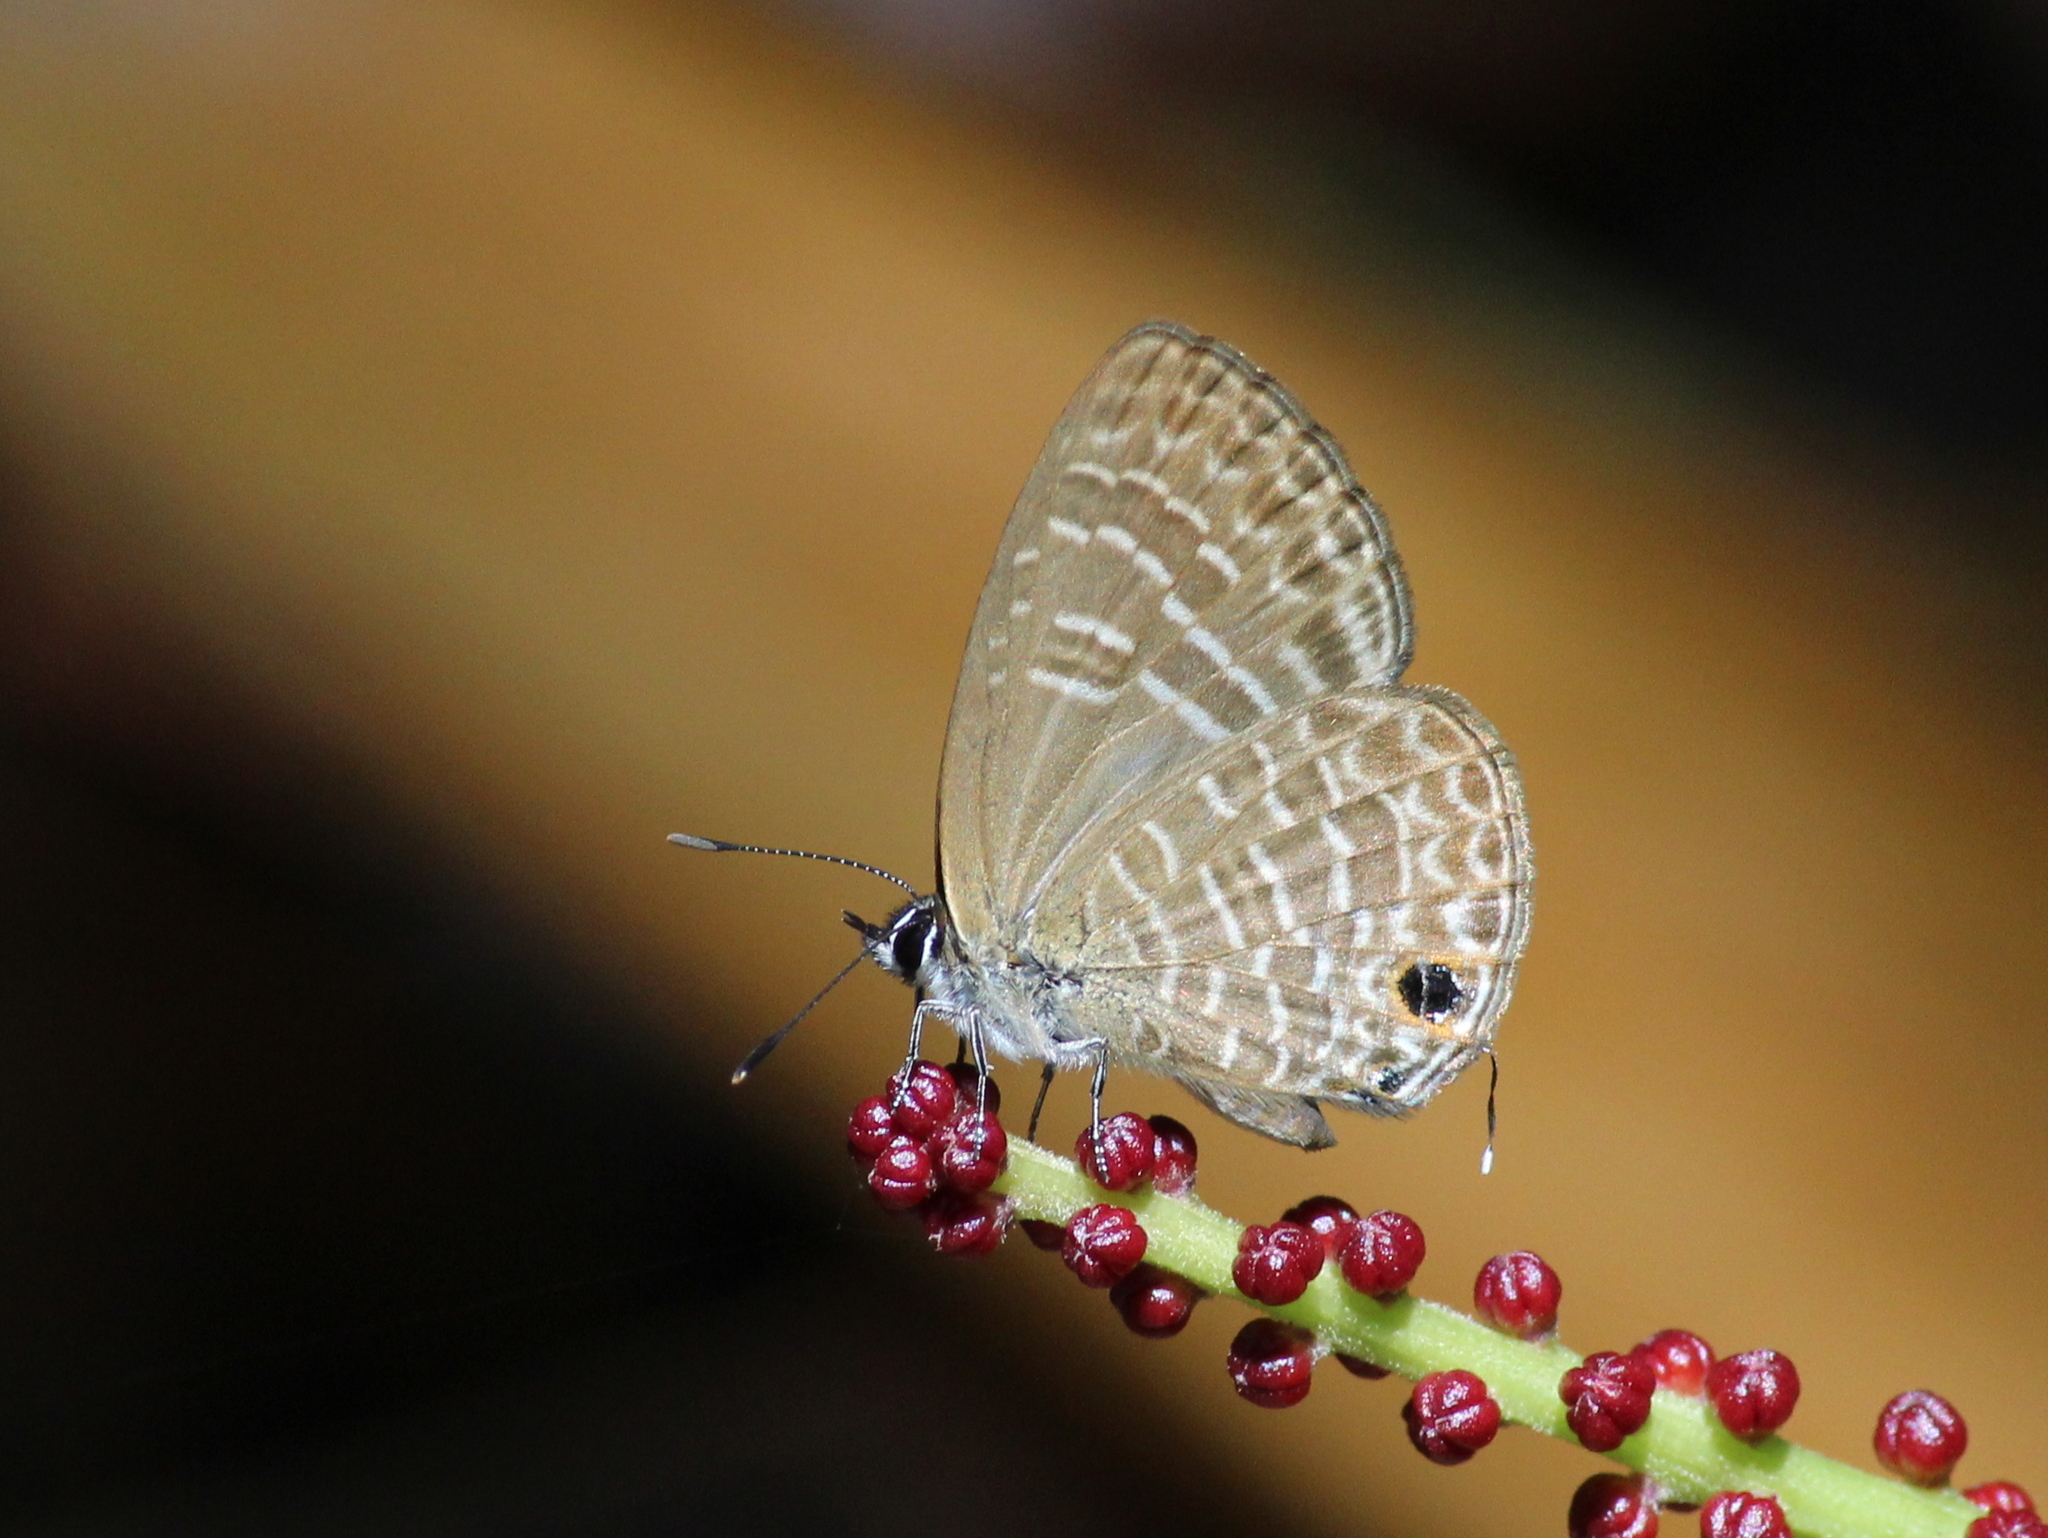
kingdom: Animalia
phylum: Arthropoda
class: Insecta
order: Lepidoptera
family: Lycaenidae
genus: Nacaduba
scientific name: Nacaduba hermus
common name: Pale four-line blue
